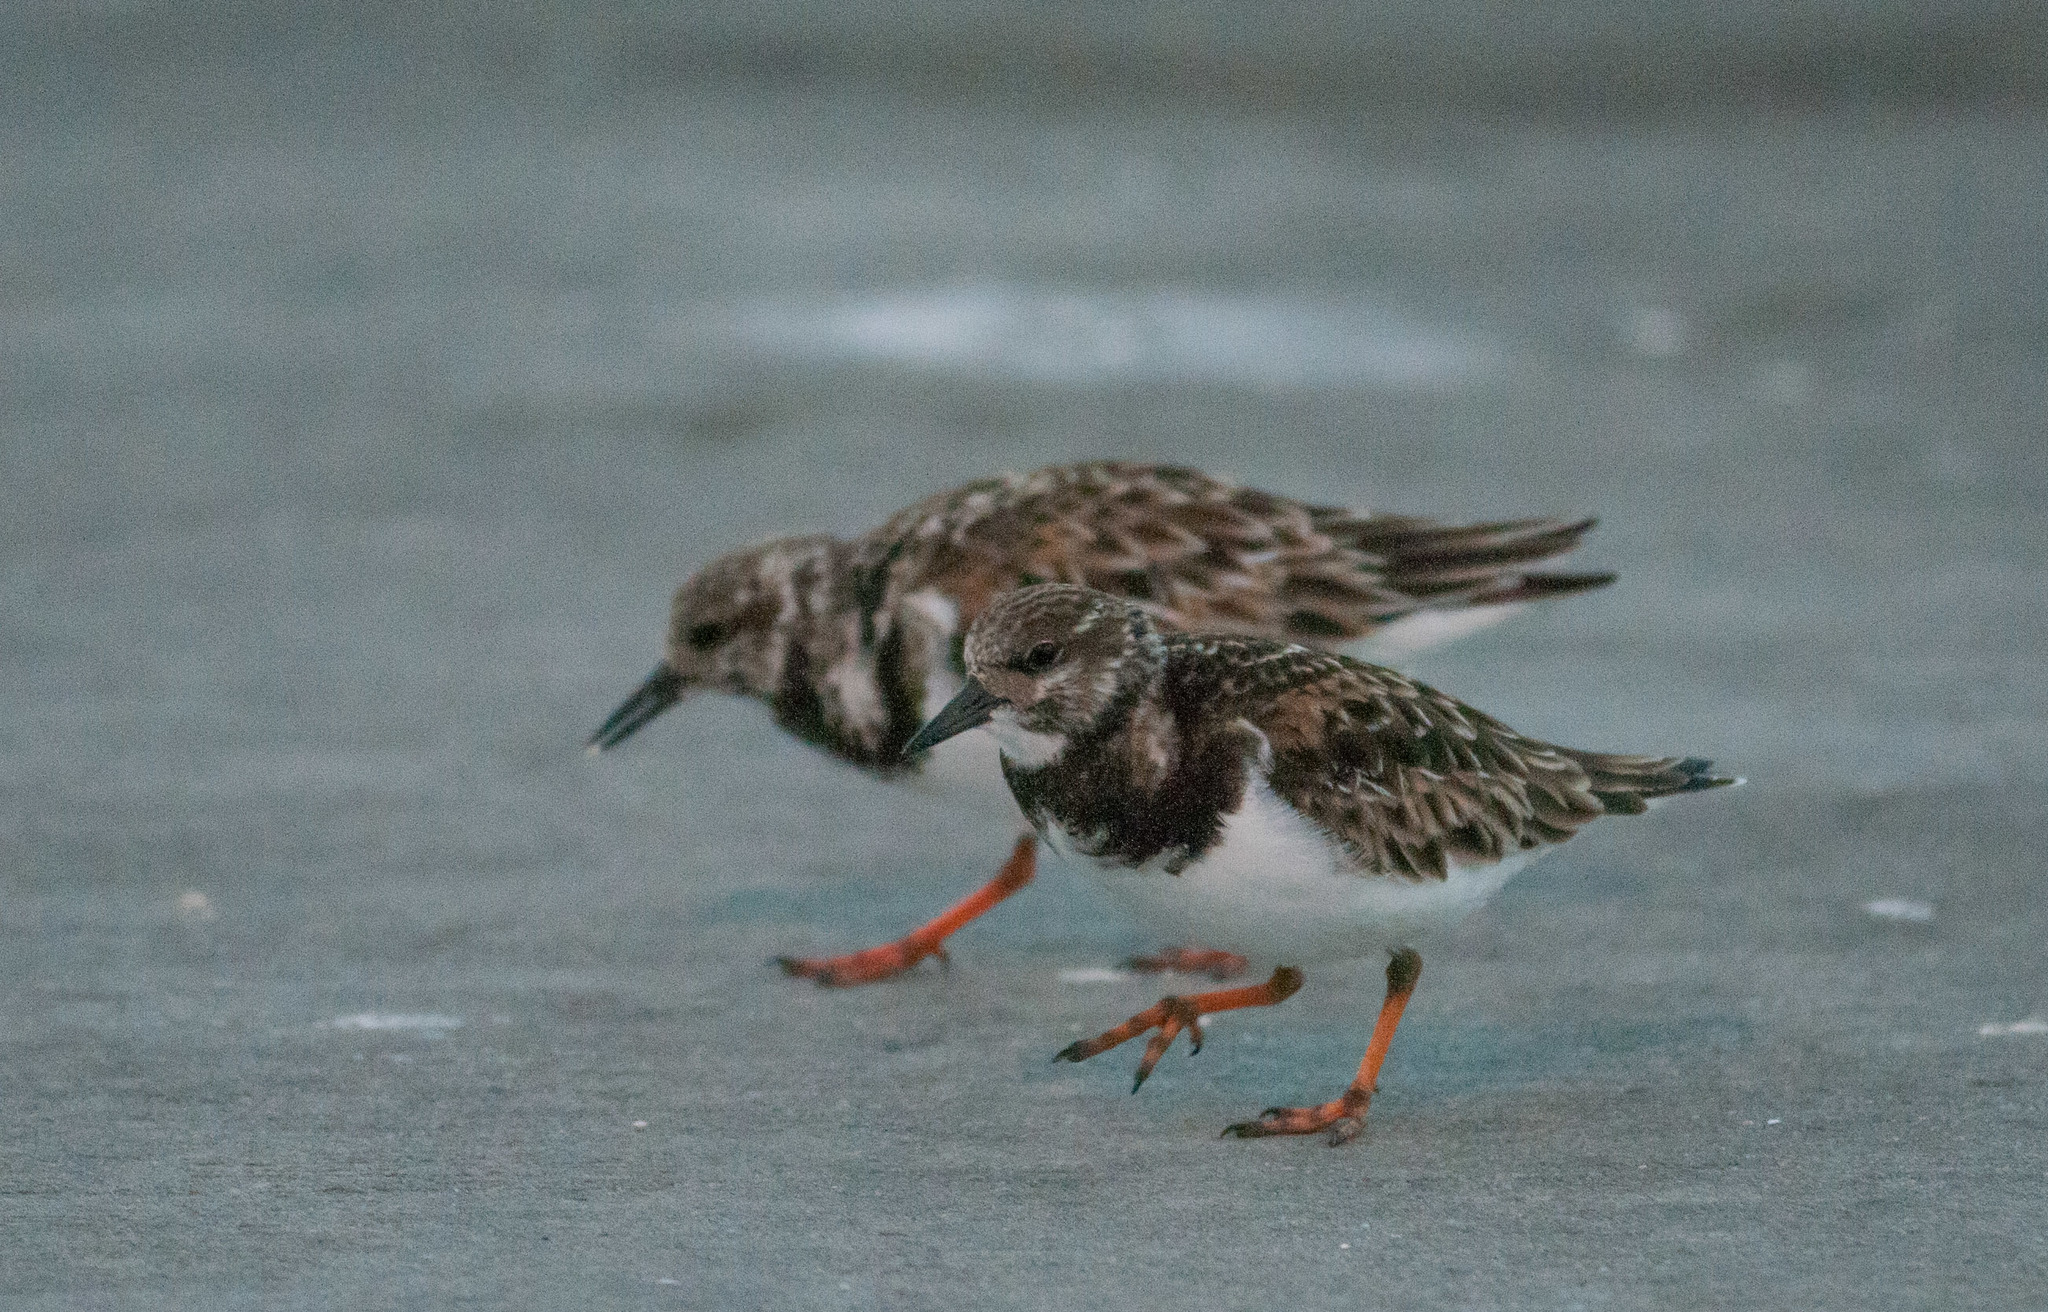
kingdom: Animalia
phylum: Chordata
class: Aves
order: Charadriiformes
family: Scolopacidae
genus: Arenaria
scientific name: Arenaria interpres
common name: Ruddy turnstone
